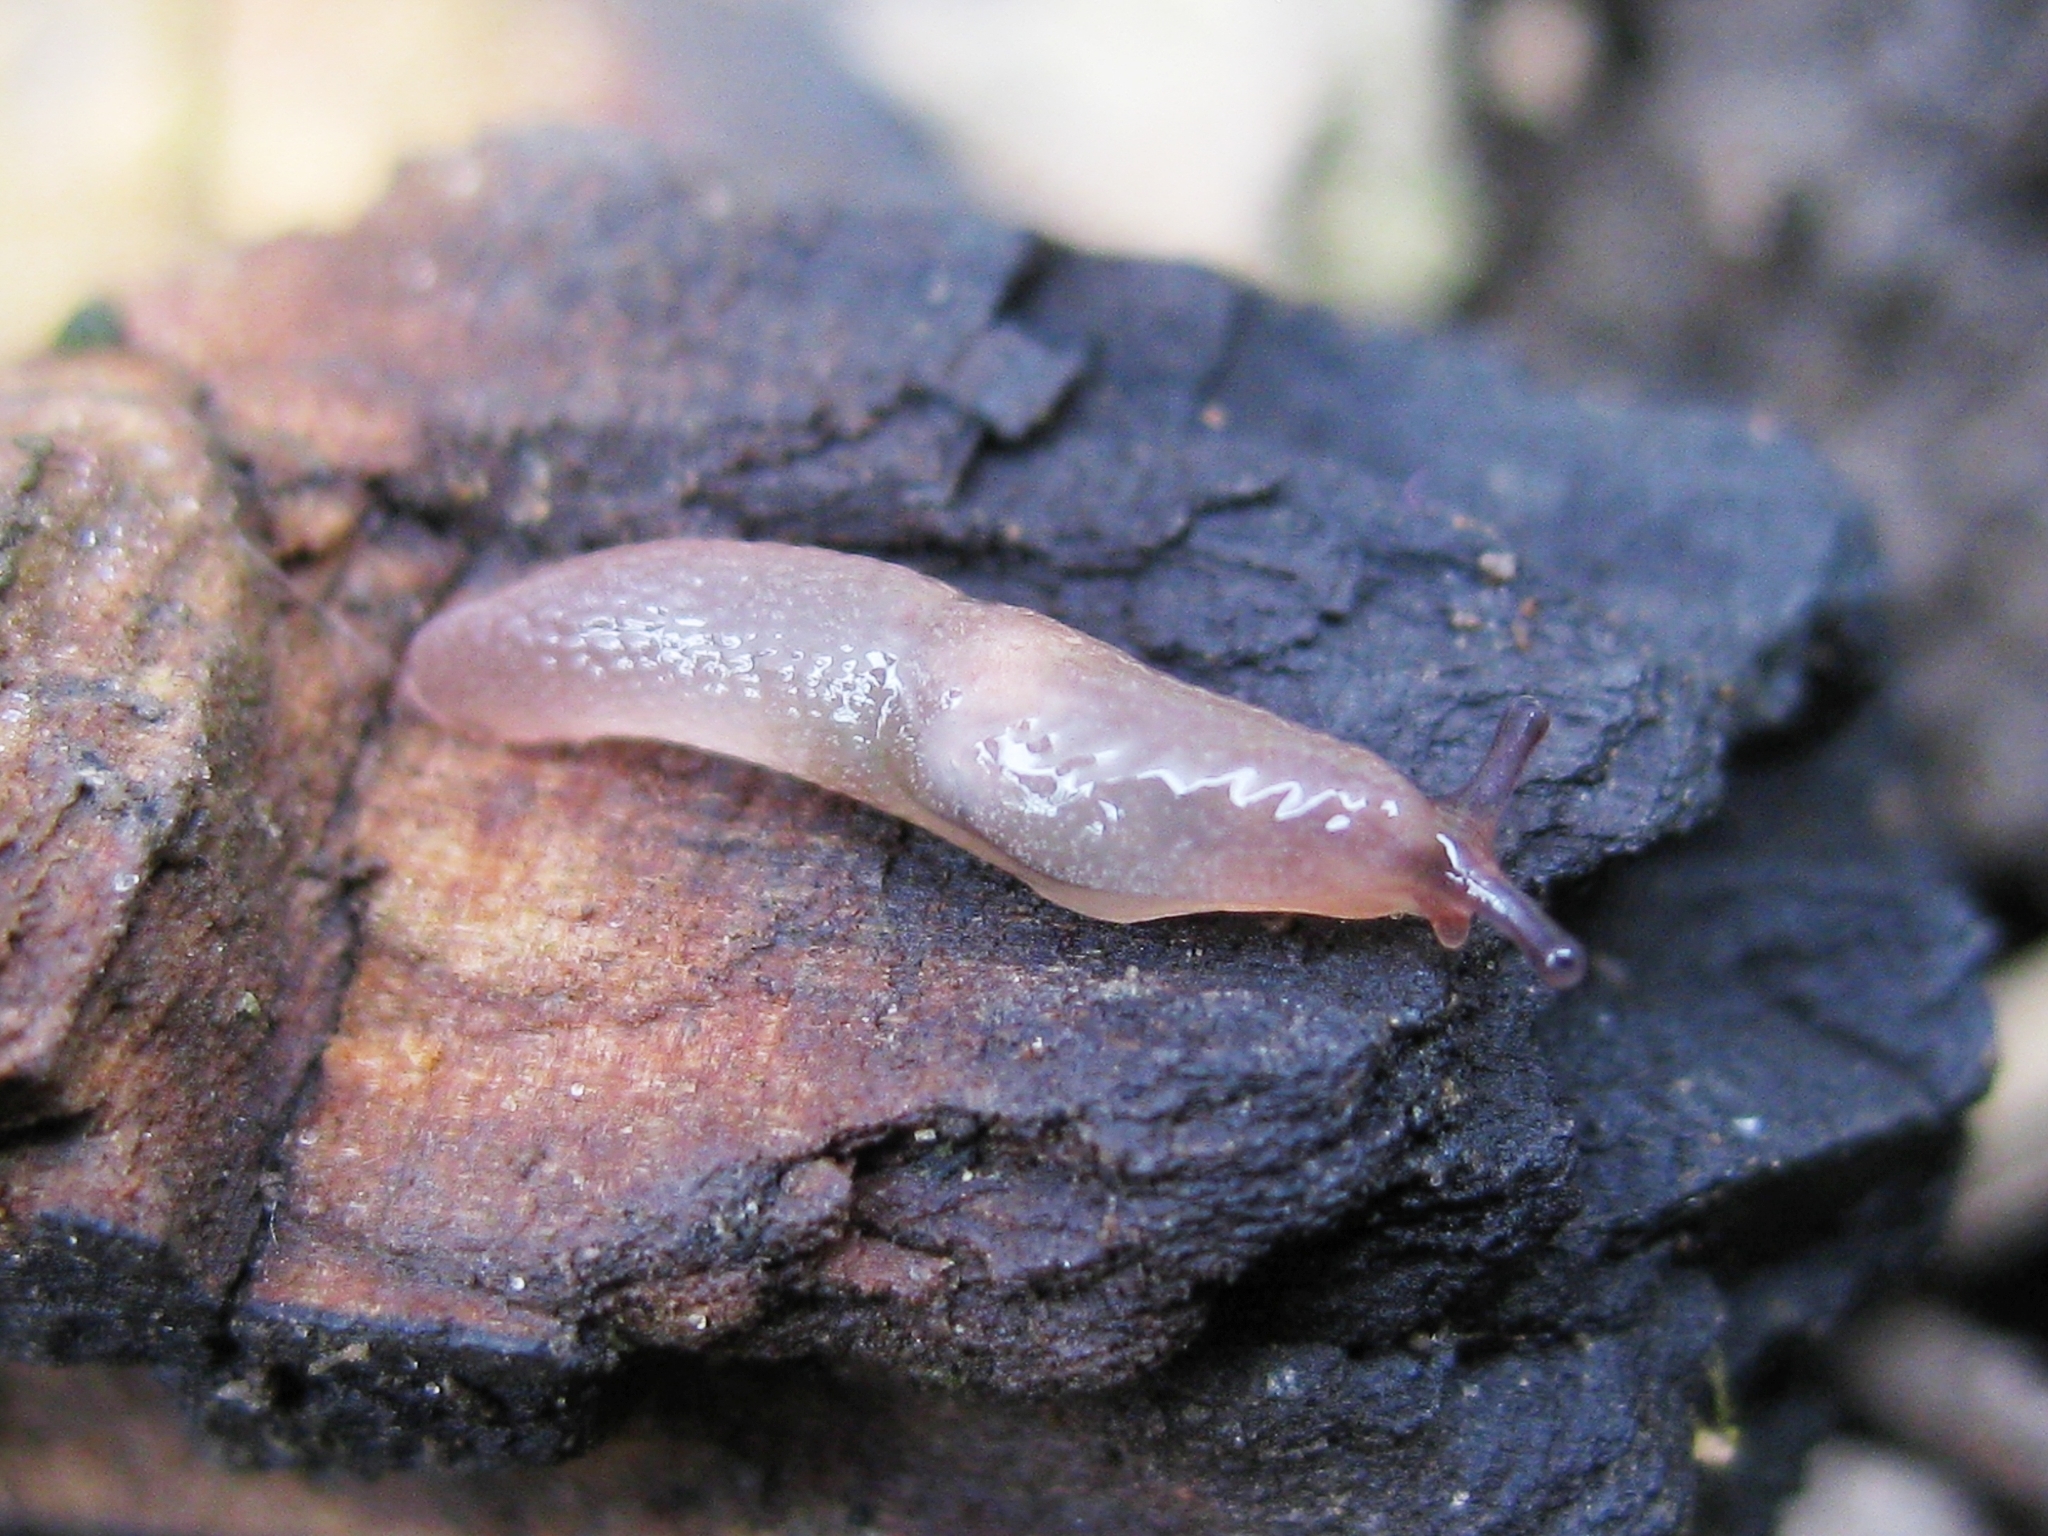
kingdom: Animalia
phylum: Mollusca
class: Gastropoda
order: Stylommatophora
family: Agriolimacidae
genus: Deroceras
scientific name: Deroceras
